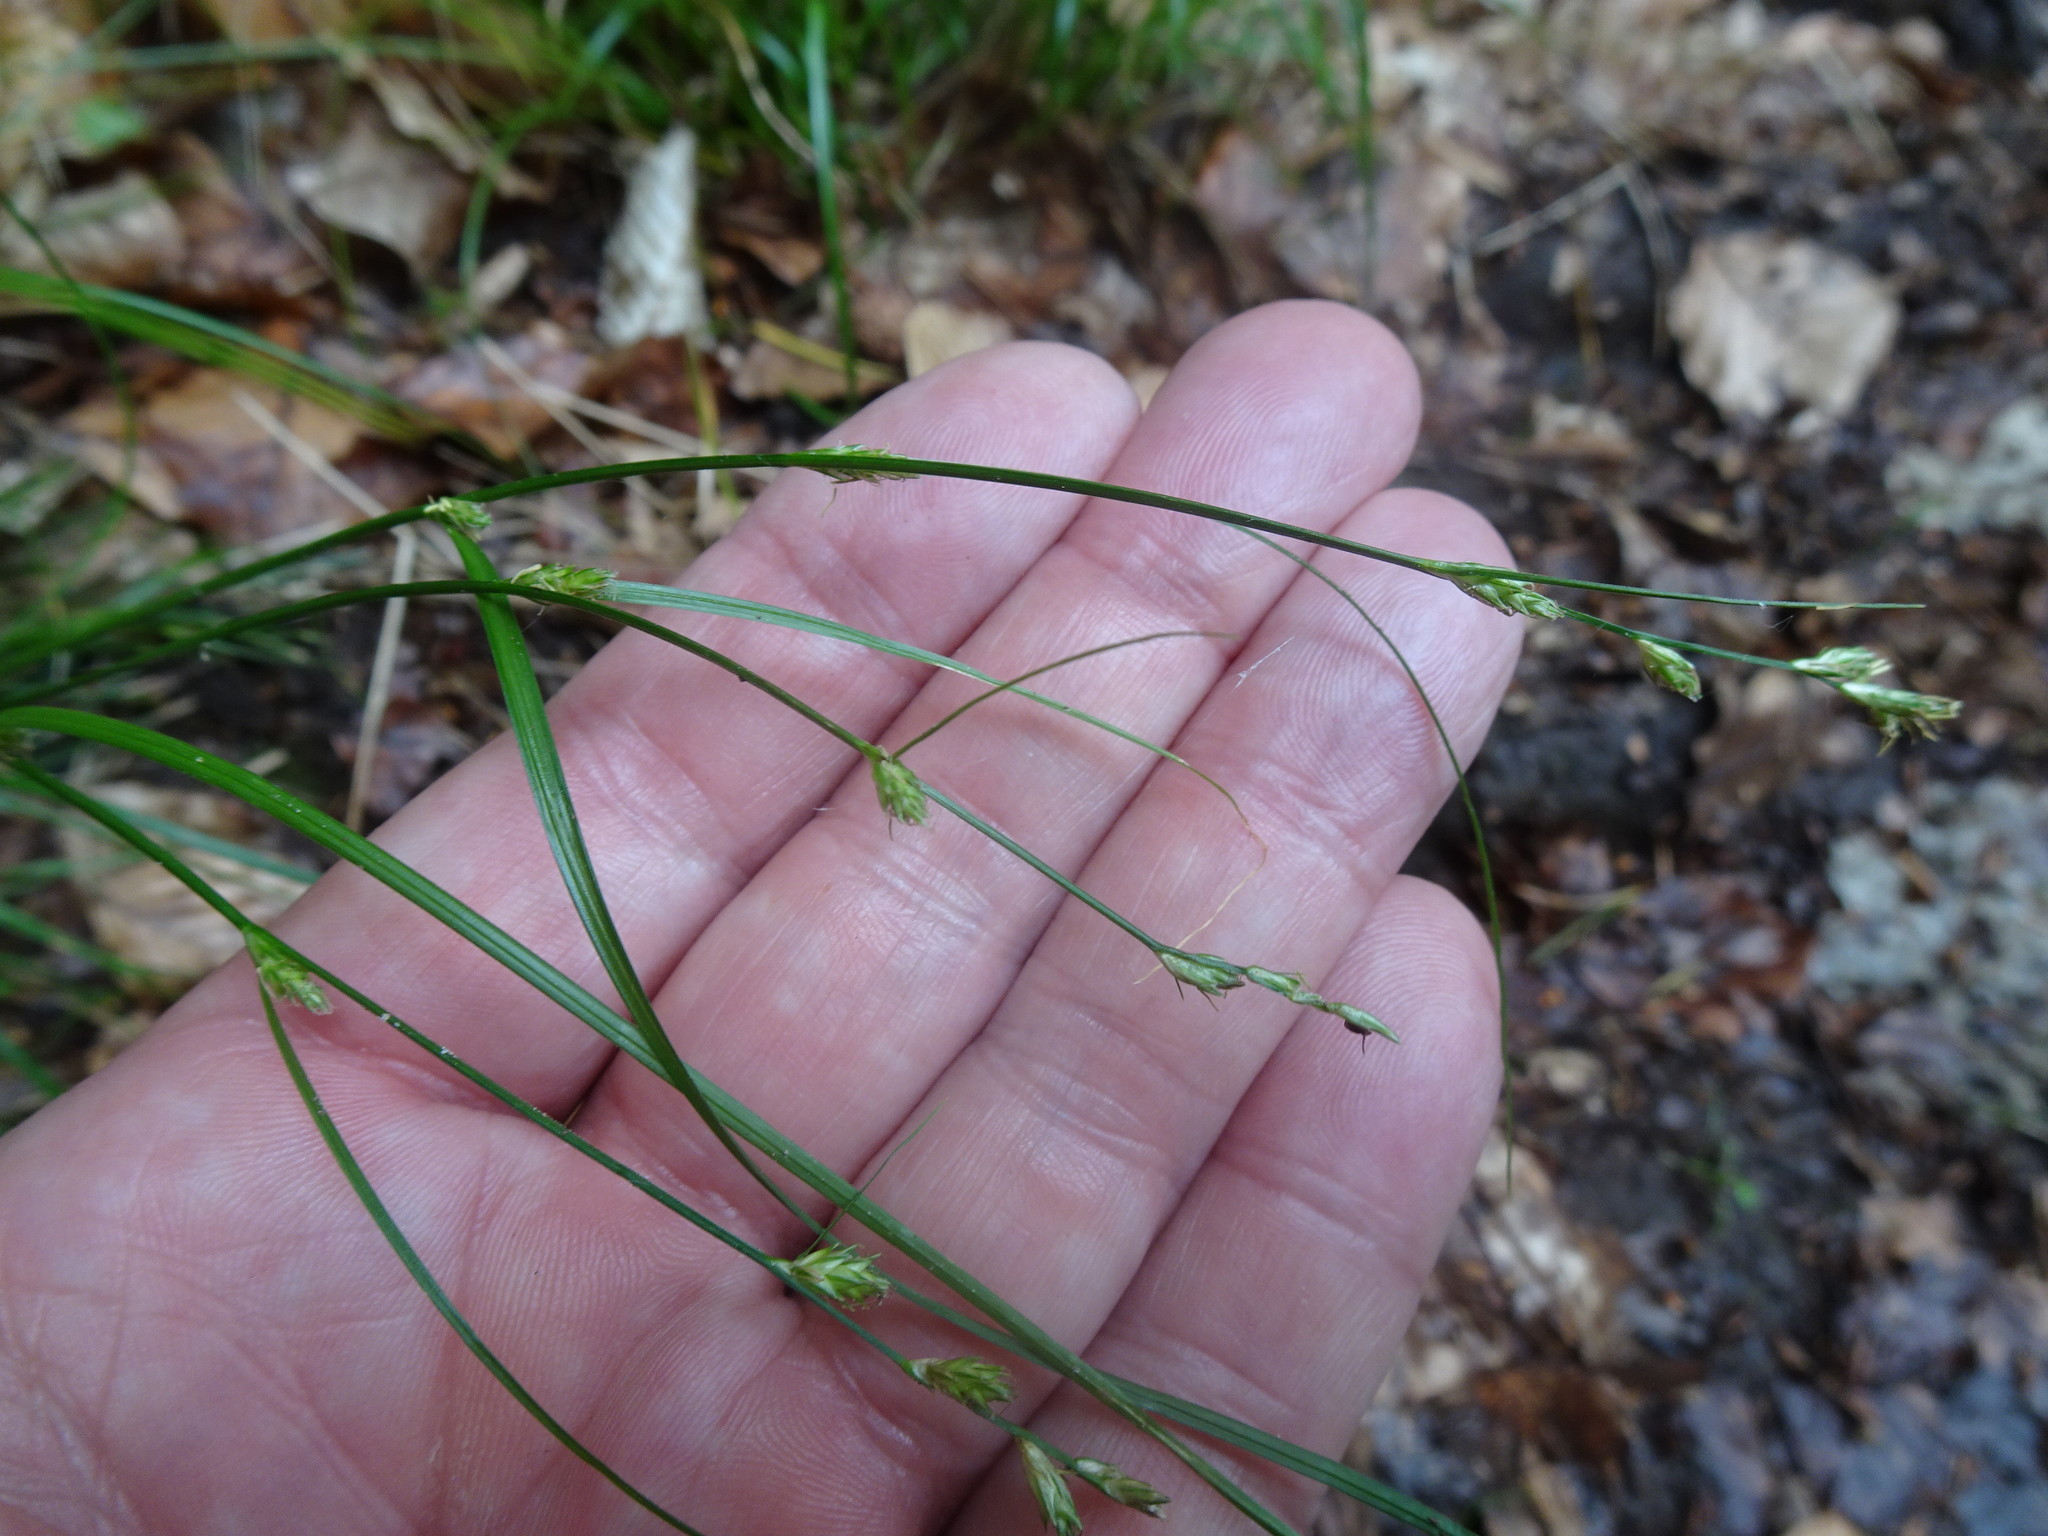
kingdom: Plantae
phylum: Tracheophyta
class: Liliopsida
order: Poales
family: Cyperaceae
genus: Carex
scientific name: Carex remota
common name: Remote sedge
